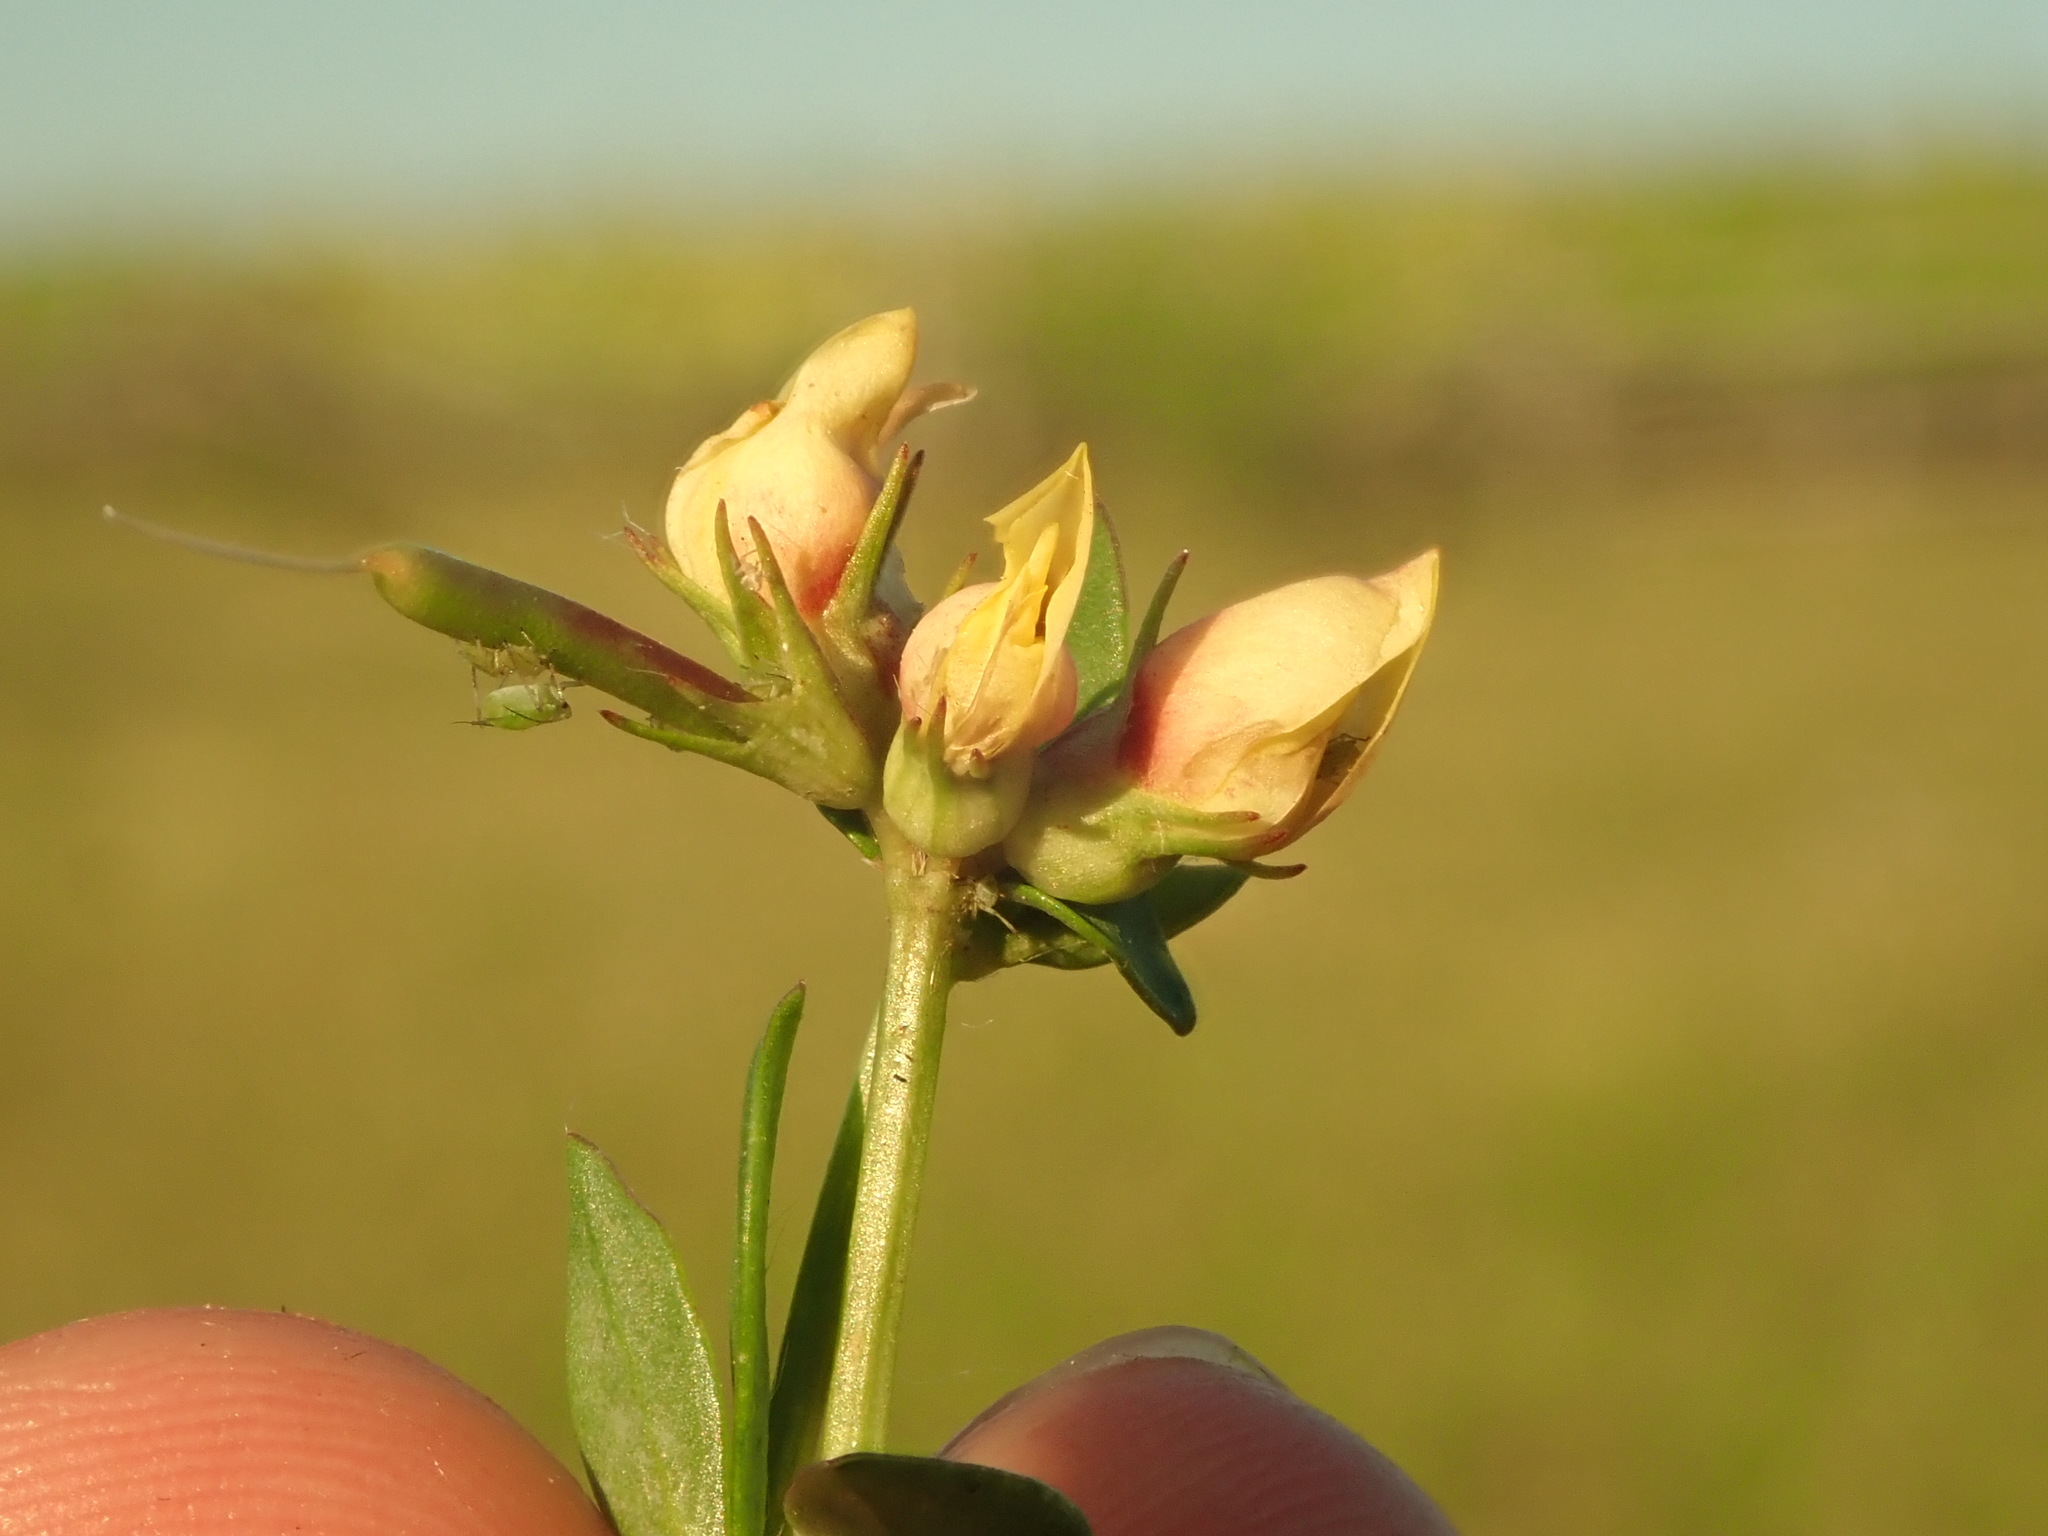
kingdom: Animalia
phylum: Arthropoda
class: Insecta
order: Diptera
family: Cecidomyiidae
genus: Contarinia
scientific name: Contarinia loti
